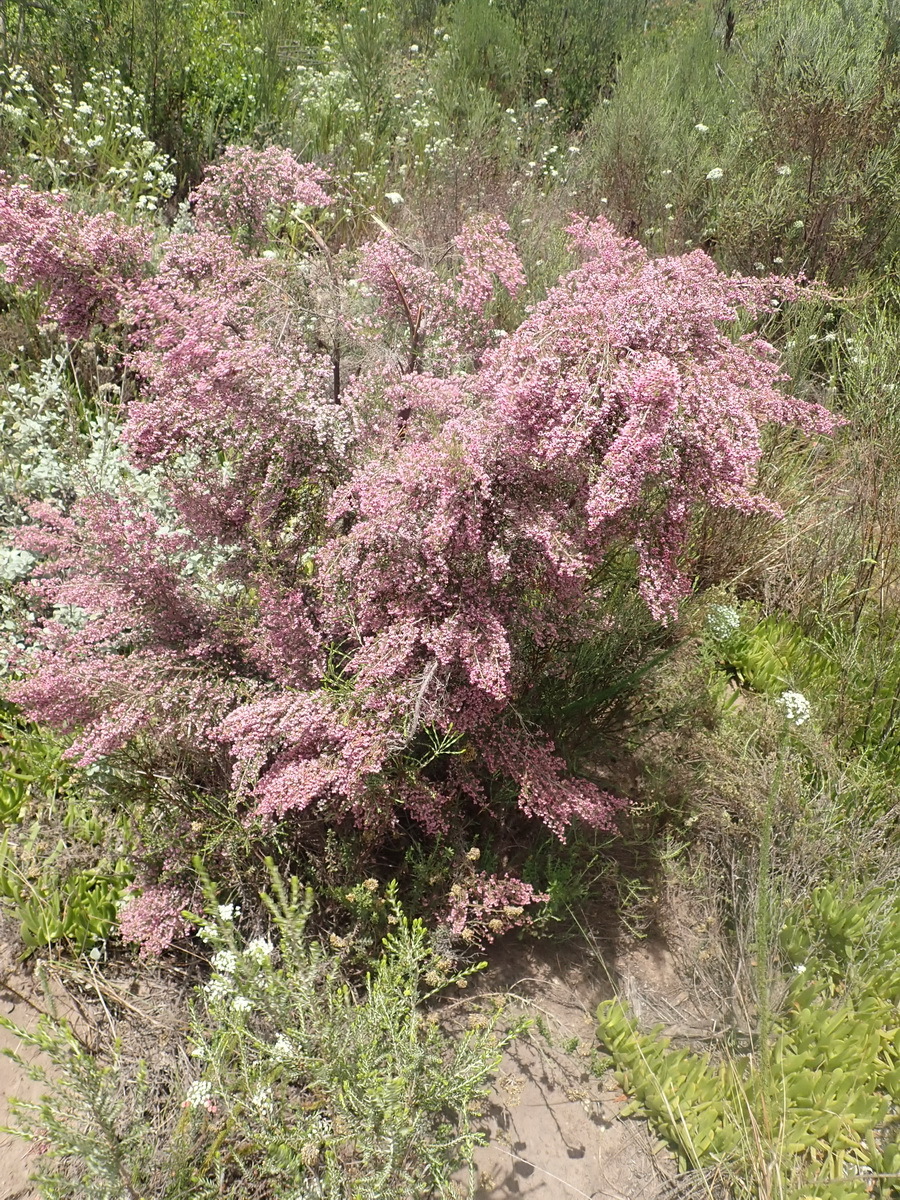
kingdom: Plantae
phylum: Tracheophyta
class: Magnoliopsida
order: Ericales
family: Ericaceae
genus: Erica
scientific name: Erica sparsa
